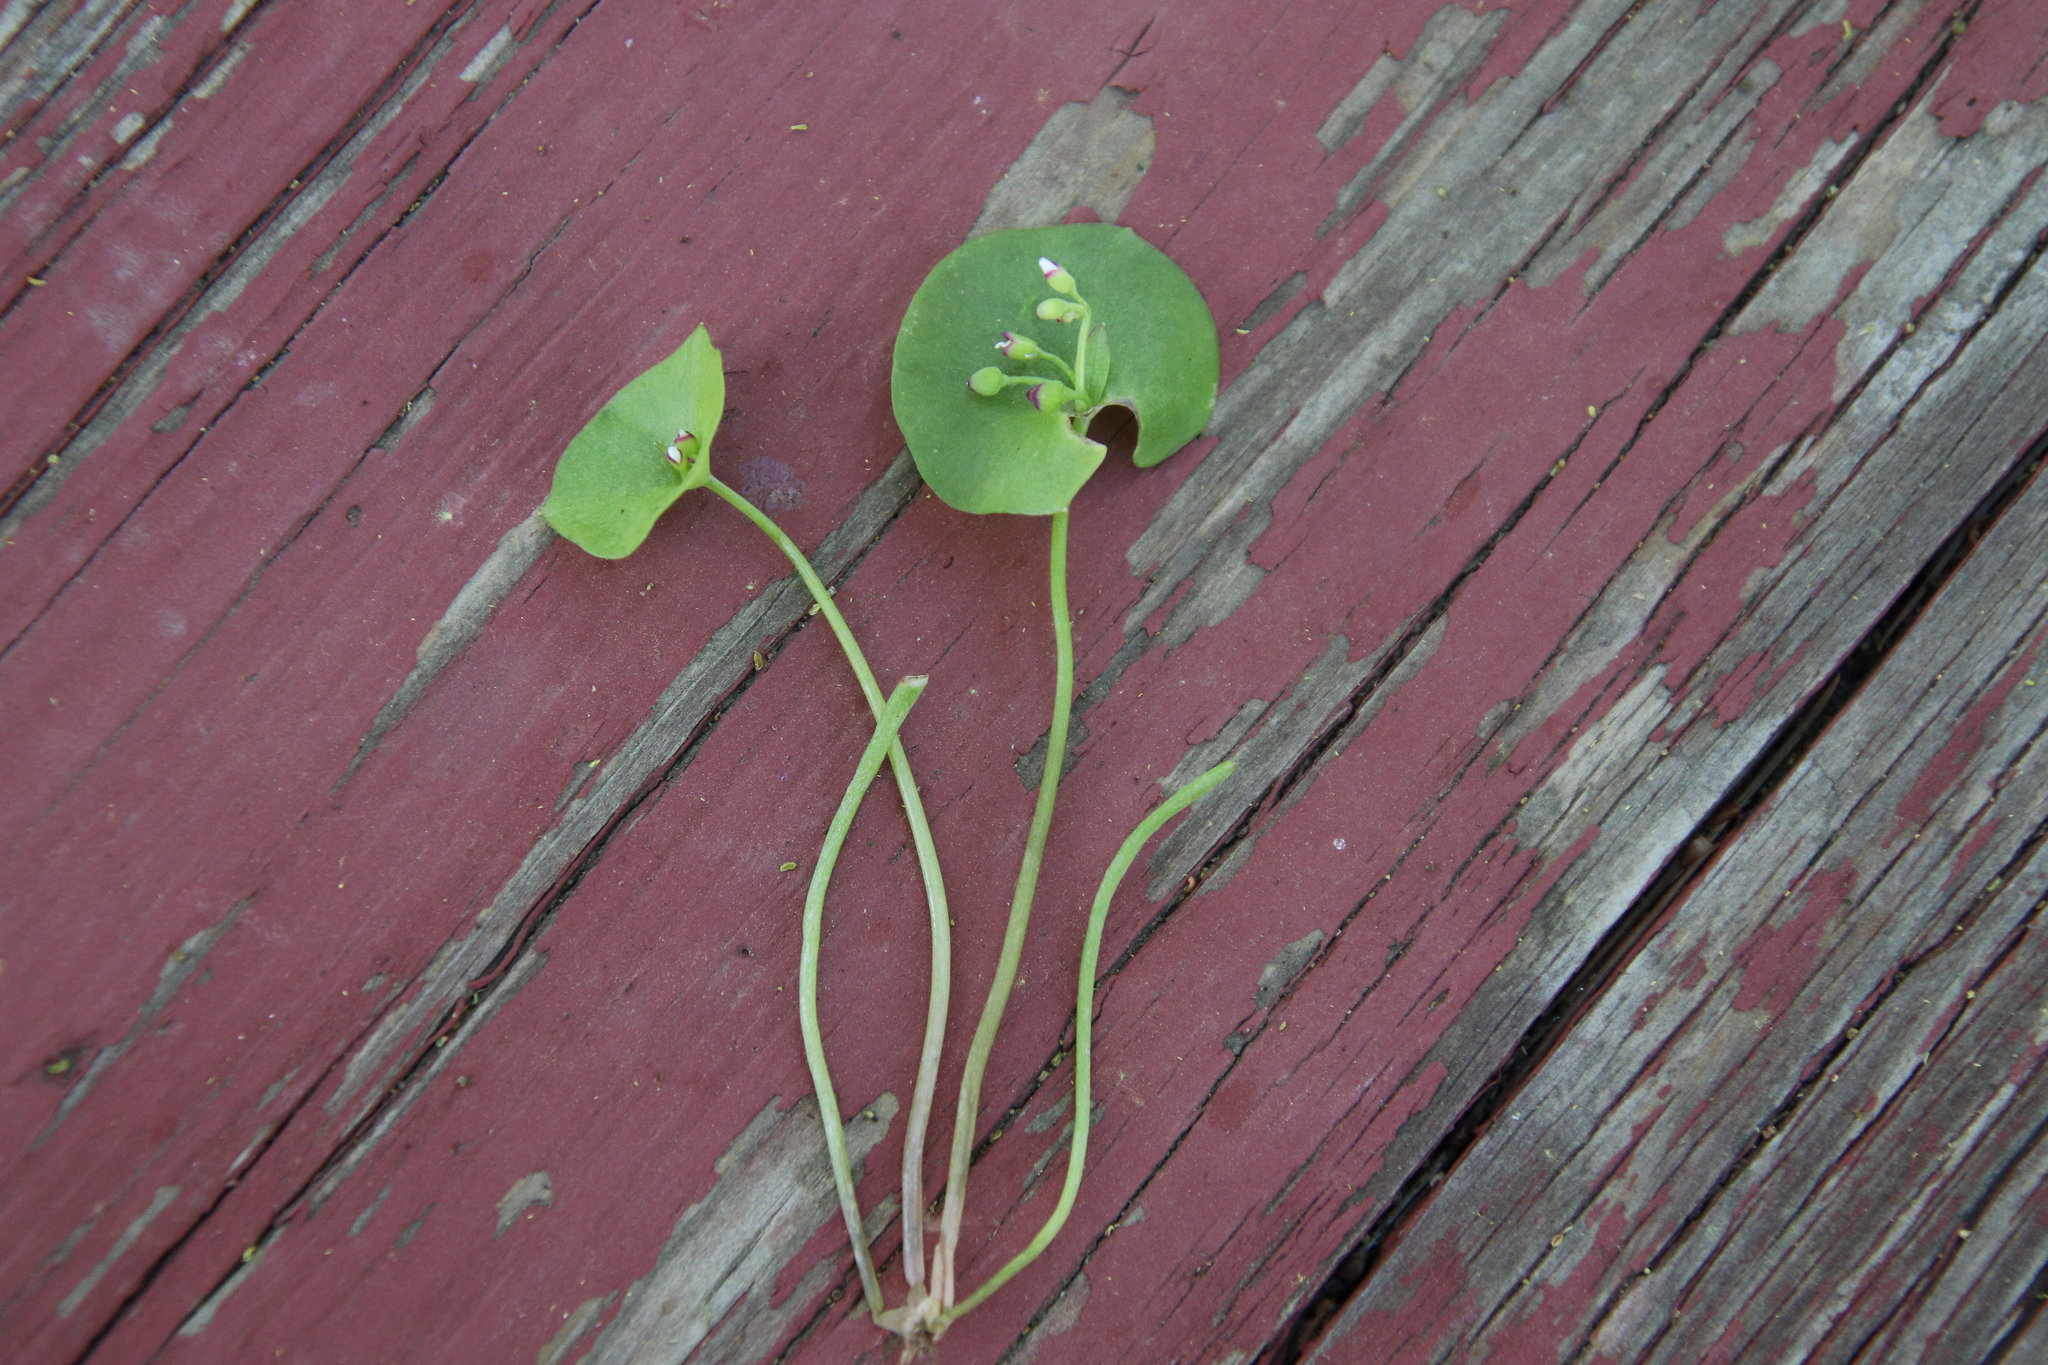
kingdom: Plantae
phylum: Tracheophyta
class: Magnoliopsida
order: Caryophyllales
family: Montiaceae
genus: Claytonia
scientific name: Claytonia parviflora
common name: Indian-lettuce
